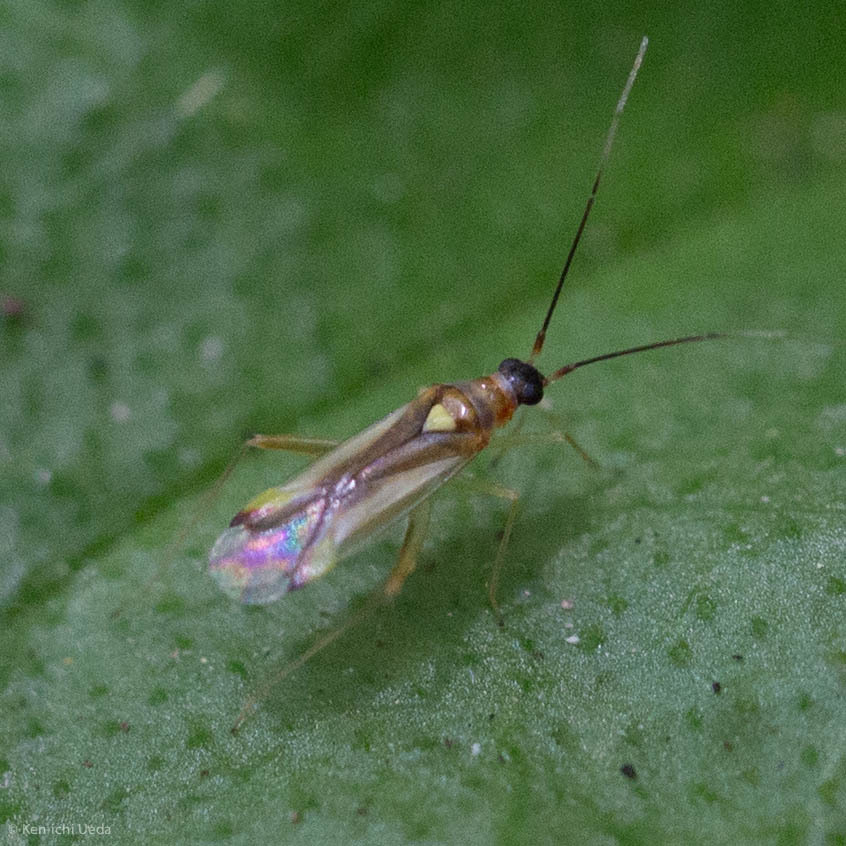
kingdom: Animalia
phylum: Arthropoda
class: Insecta
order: Hemiptera
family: Miridae
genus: Campyloneura
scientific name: Campyloneura virgula
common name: Predatory bug
